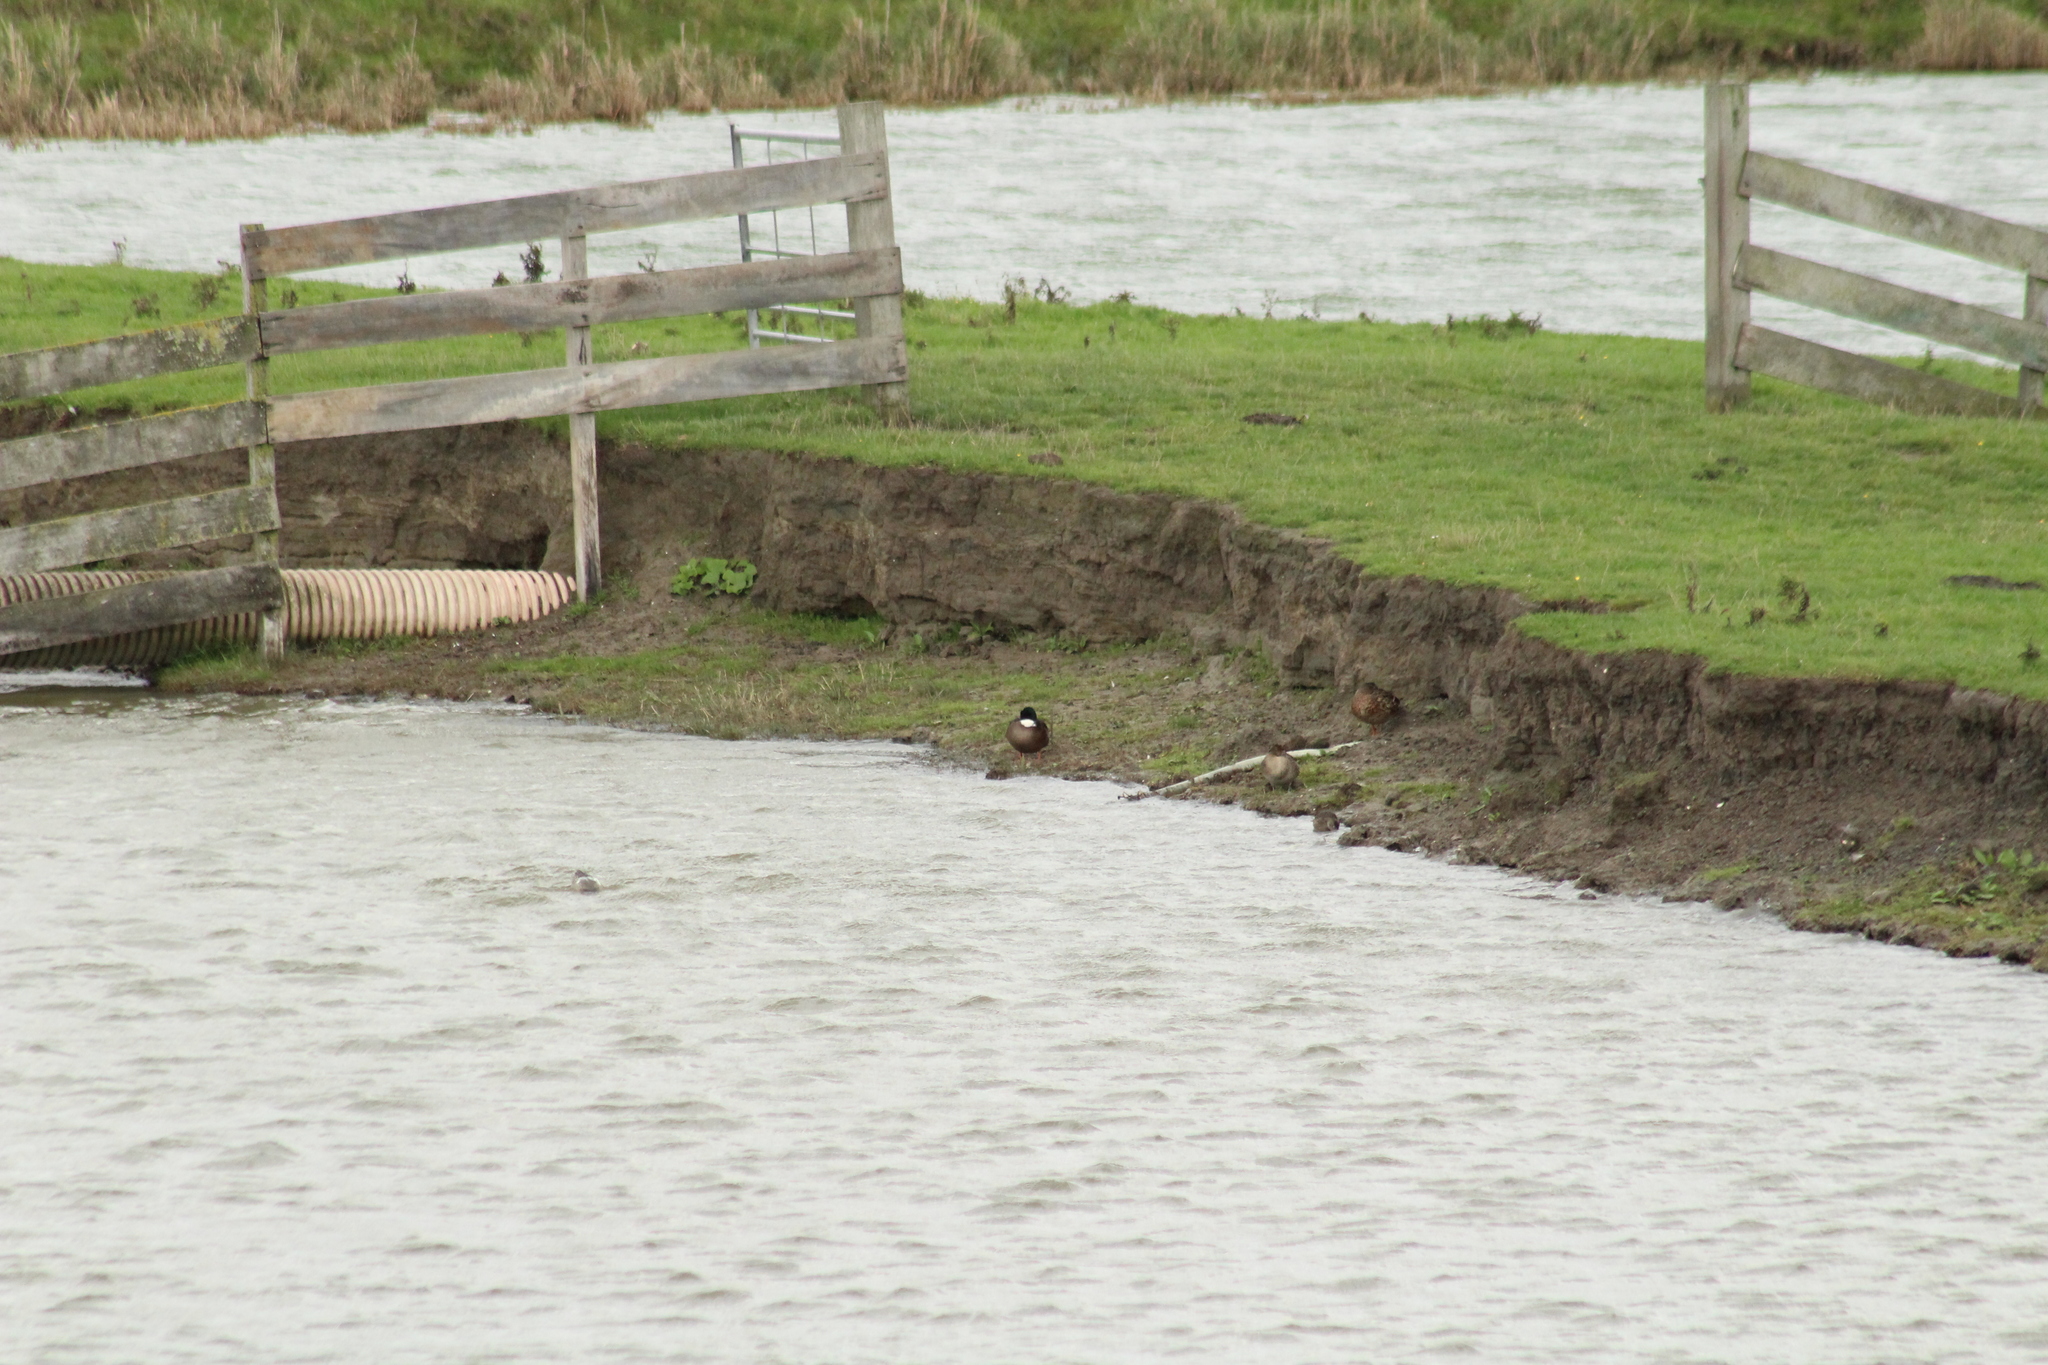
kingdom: Animalia
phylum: Chordata
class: Aves
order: Anseriformes
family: Anatidae
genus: Anas
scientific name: Anas platyrhynchos
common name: Mallard
